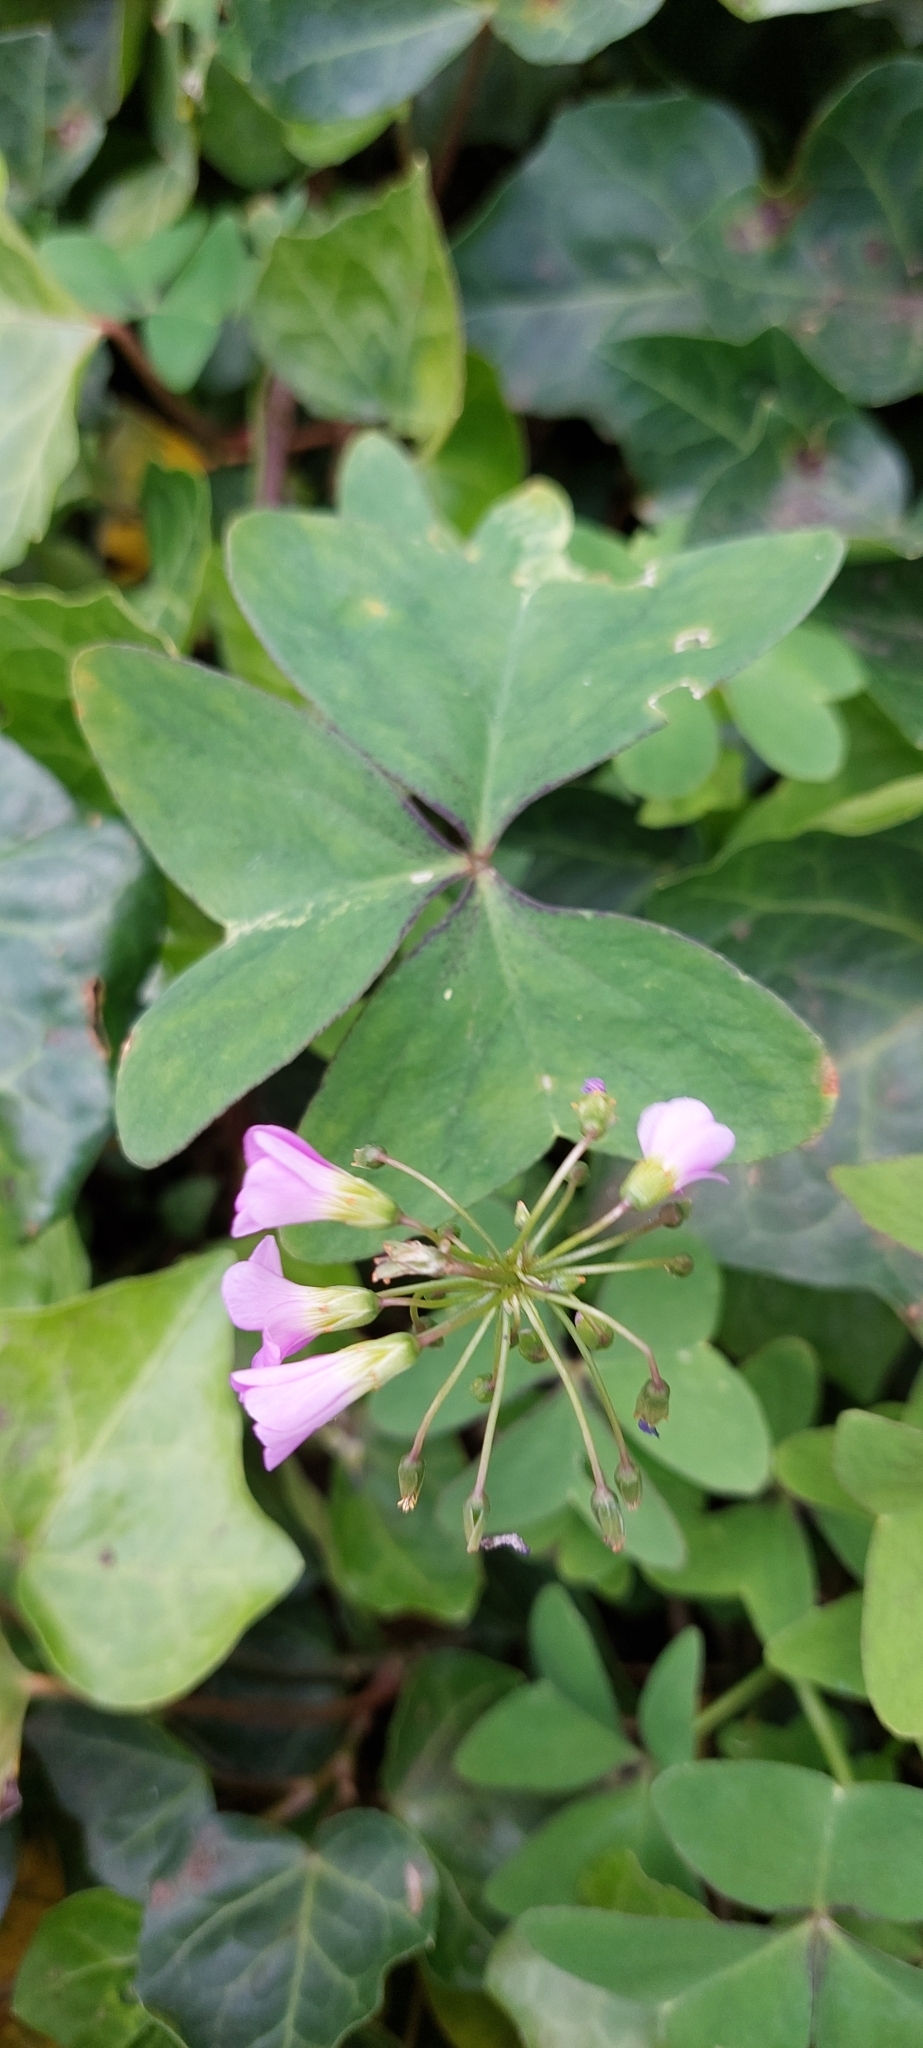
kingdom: Plantae
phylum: Tracheophyta
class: Magnoliopsida
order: Oxalidales
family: Oxalidaceae
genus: Oxalis
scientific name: Oxalis latifolia
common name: Garden pink-sorrel
